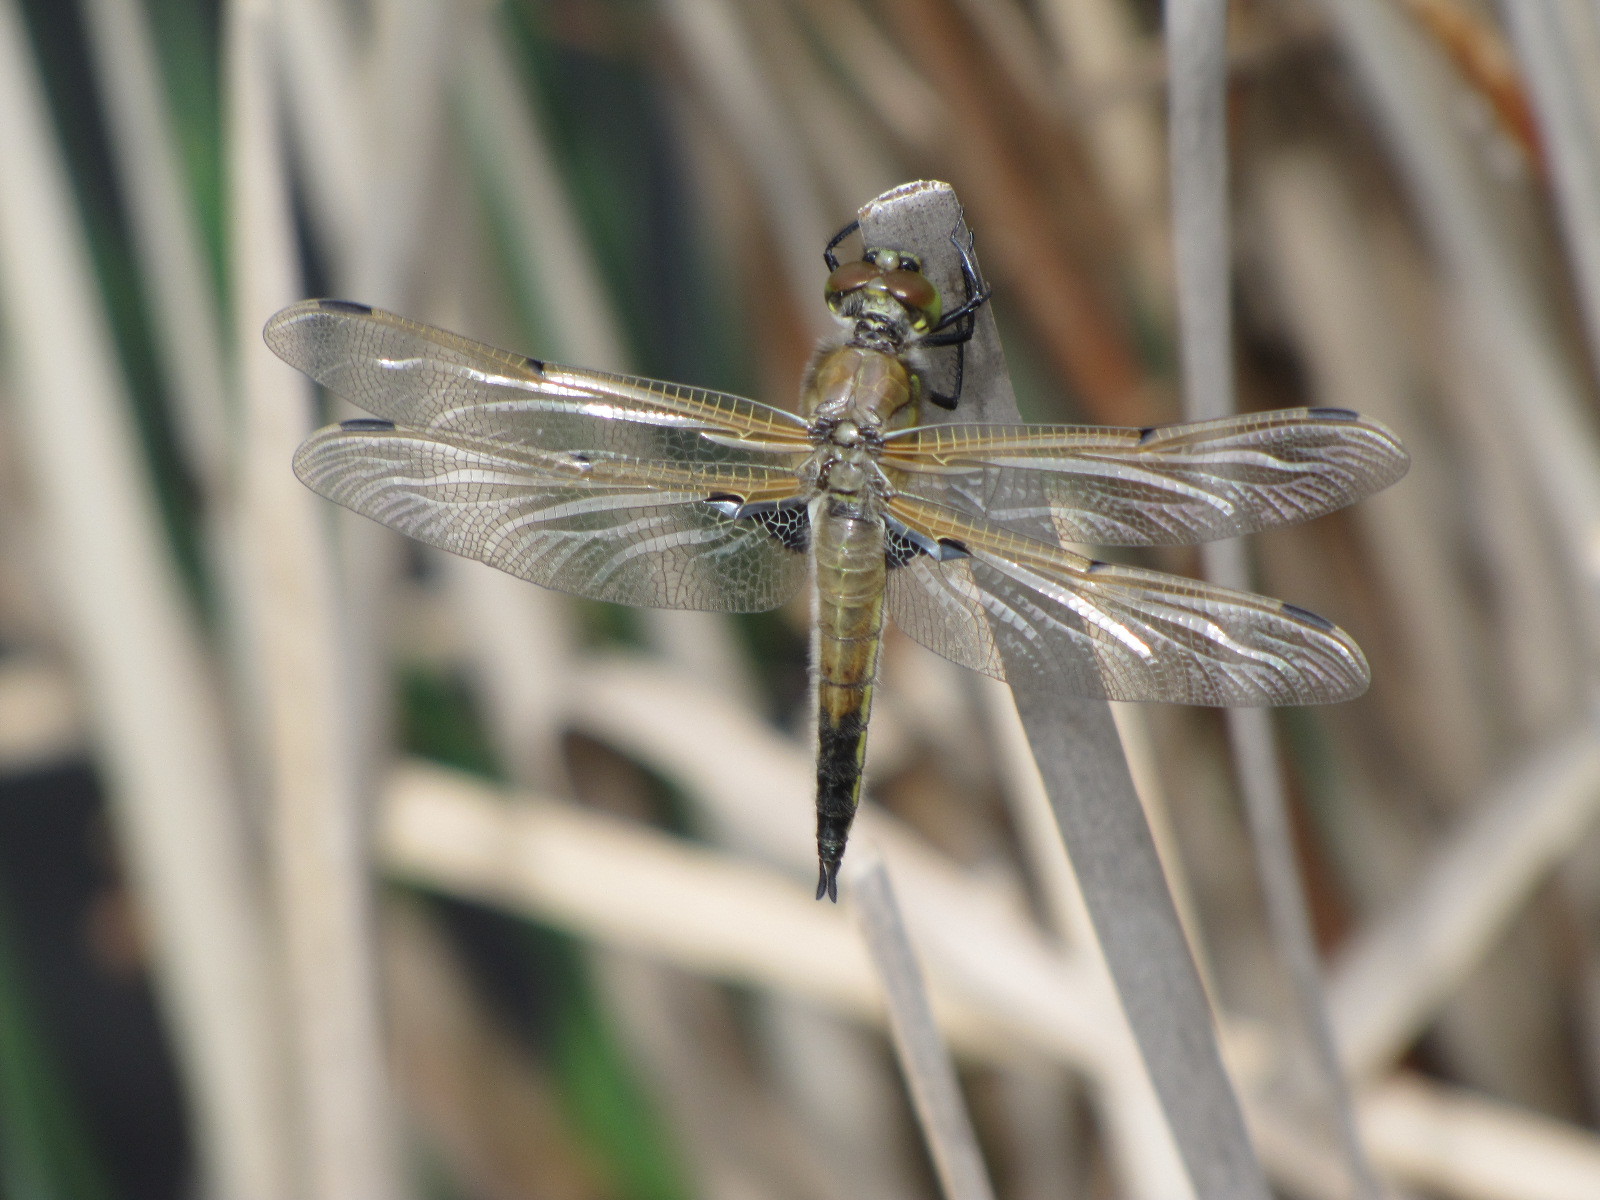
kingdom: Animalia
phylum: Arthropoda
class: Insecta
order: Odonata
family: Libellulidae
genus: Libellula
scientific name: Libellula quadrimaculata
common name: Four-spotted chaser
